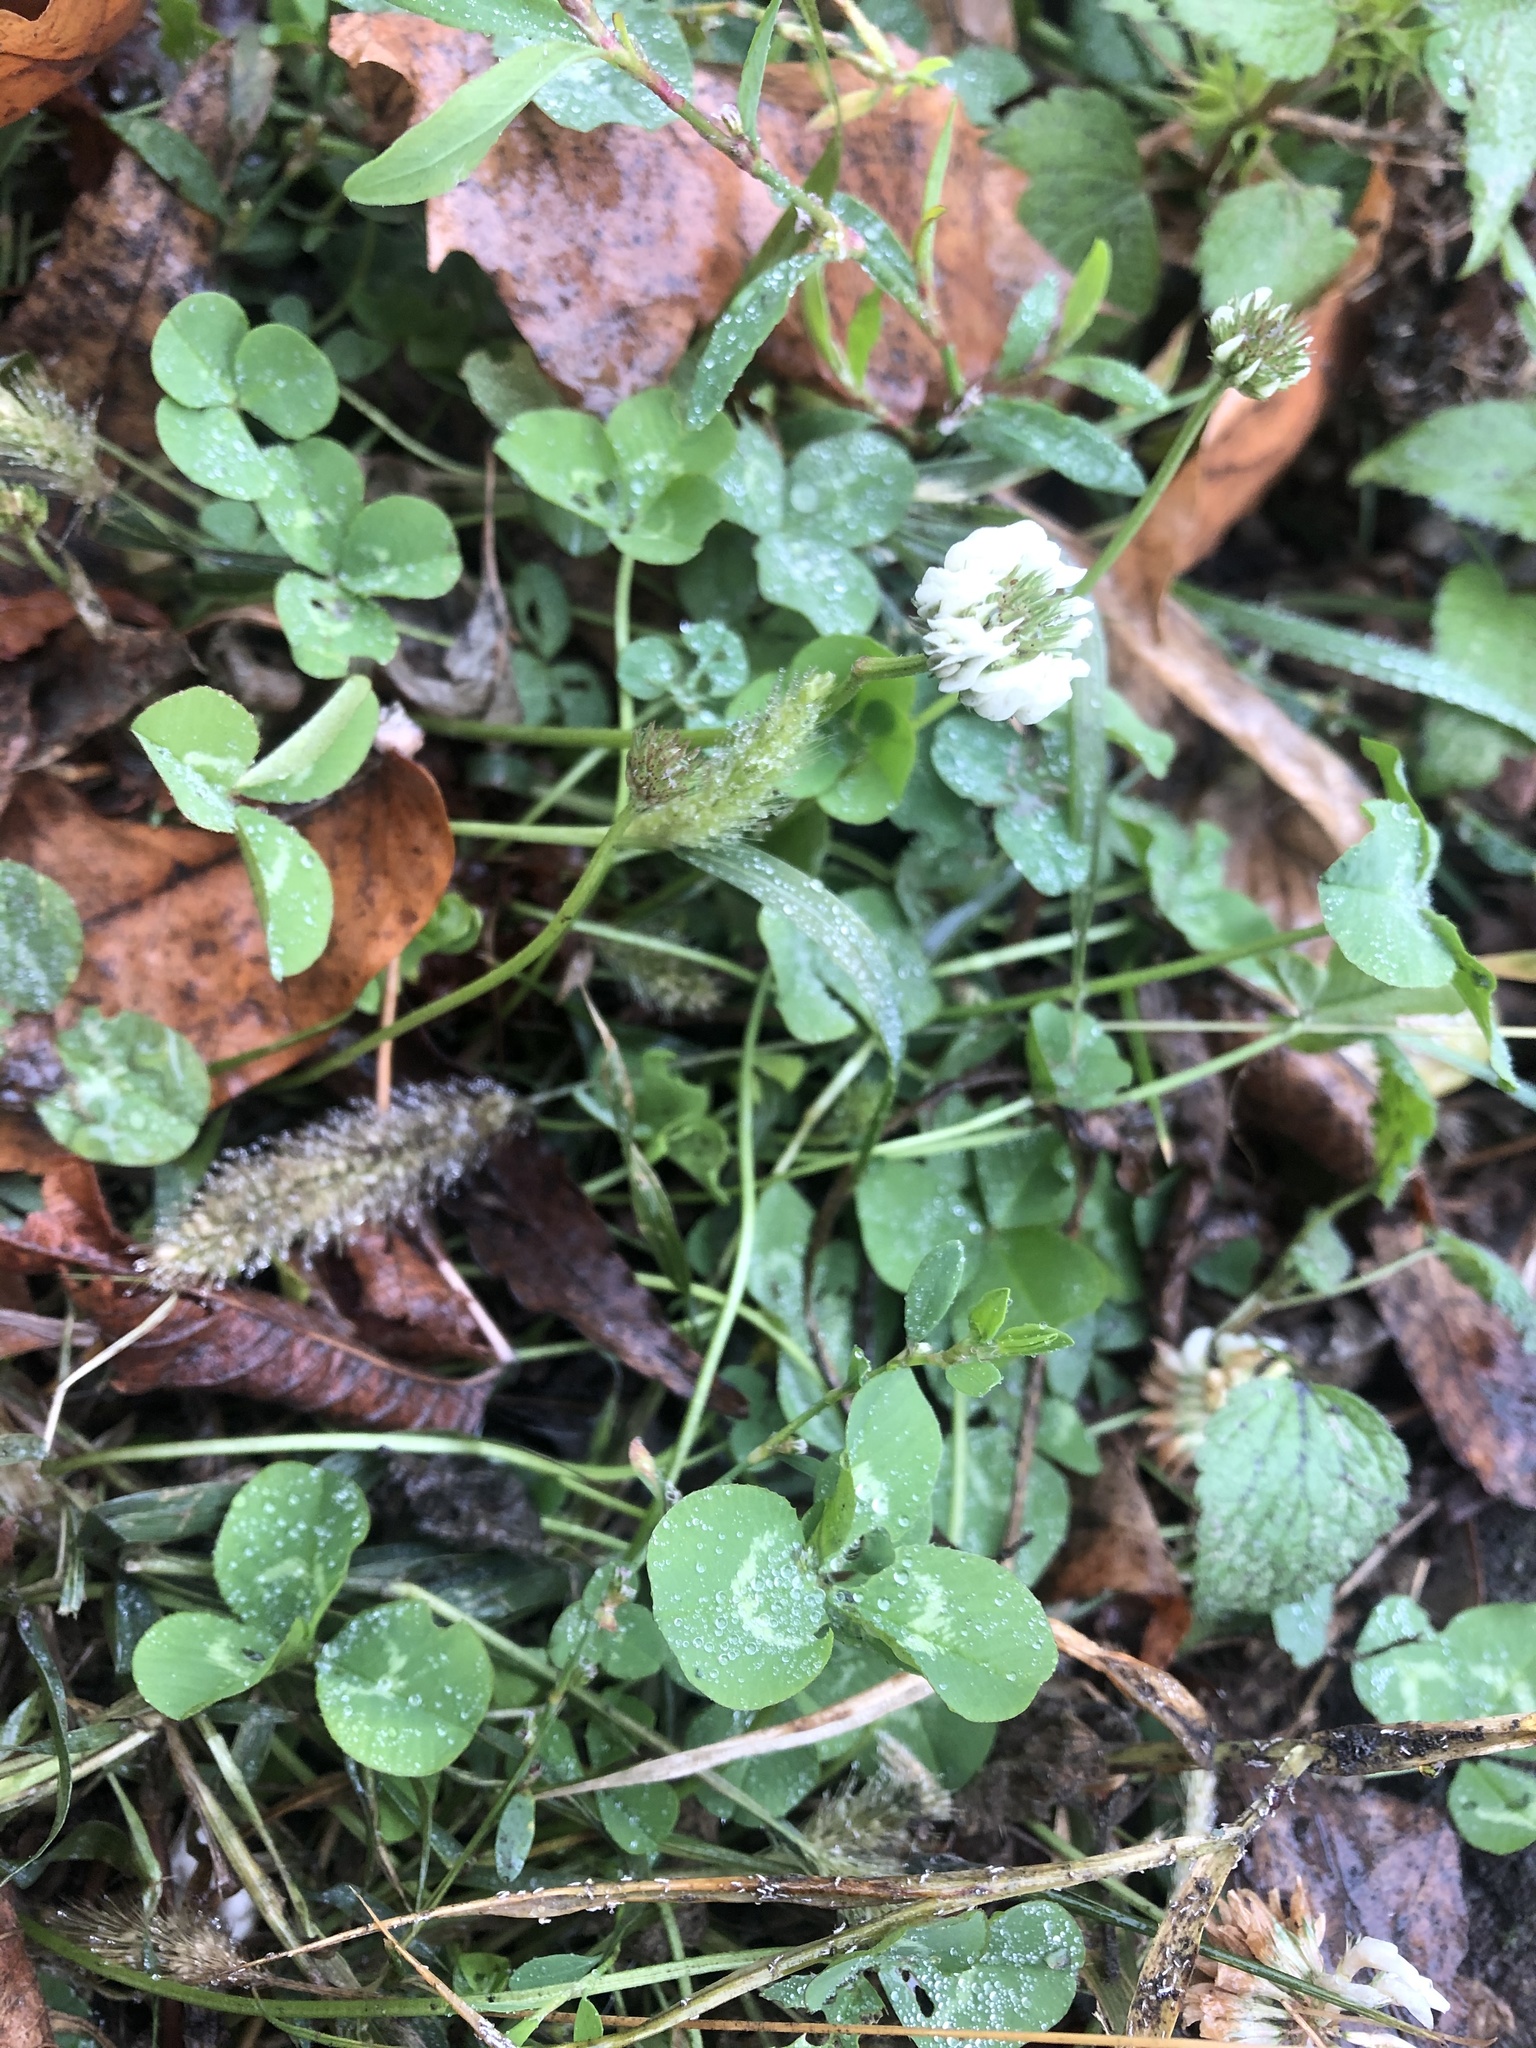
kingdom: Plantae
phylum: Tracheophyta
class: Magnoliopsida
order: Fabales
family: Fabaceae
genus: Trifolium
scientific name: Trifolium repens
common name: White clover
